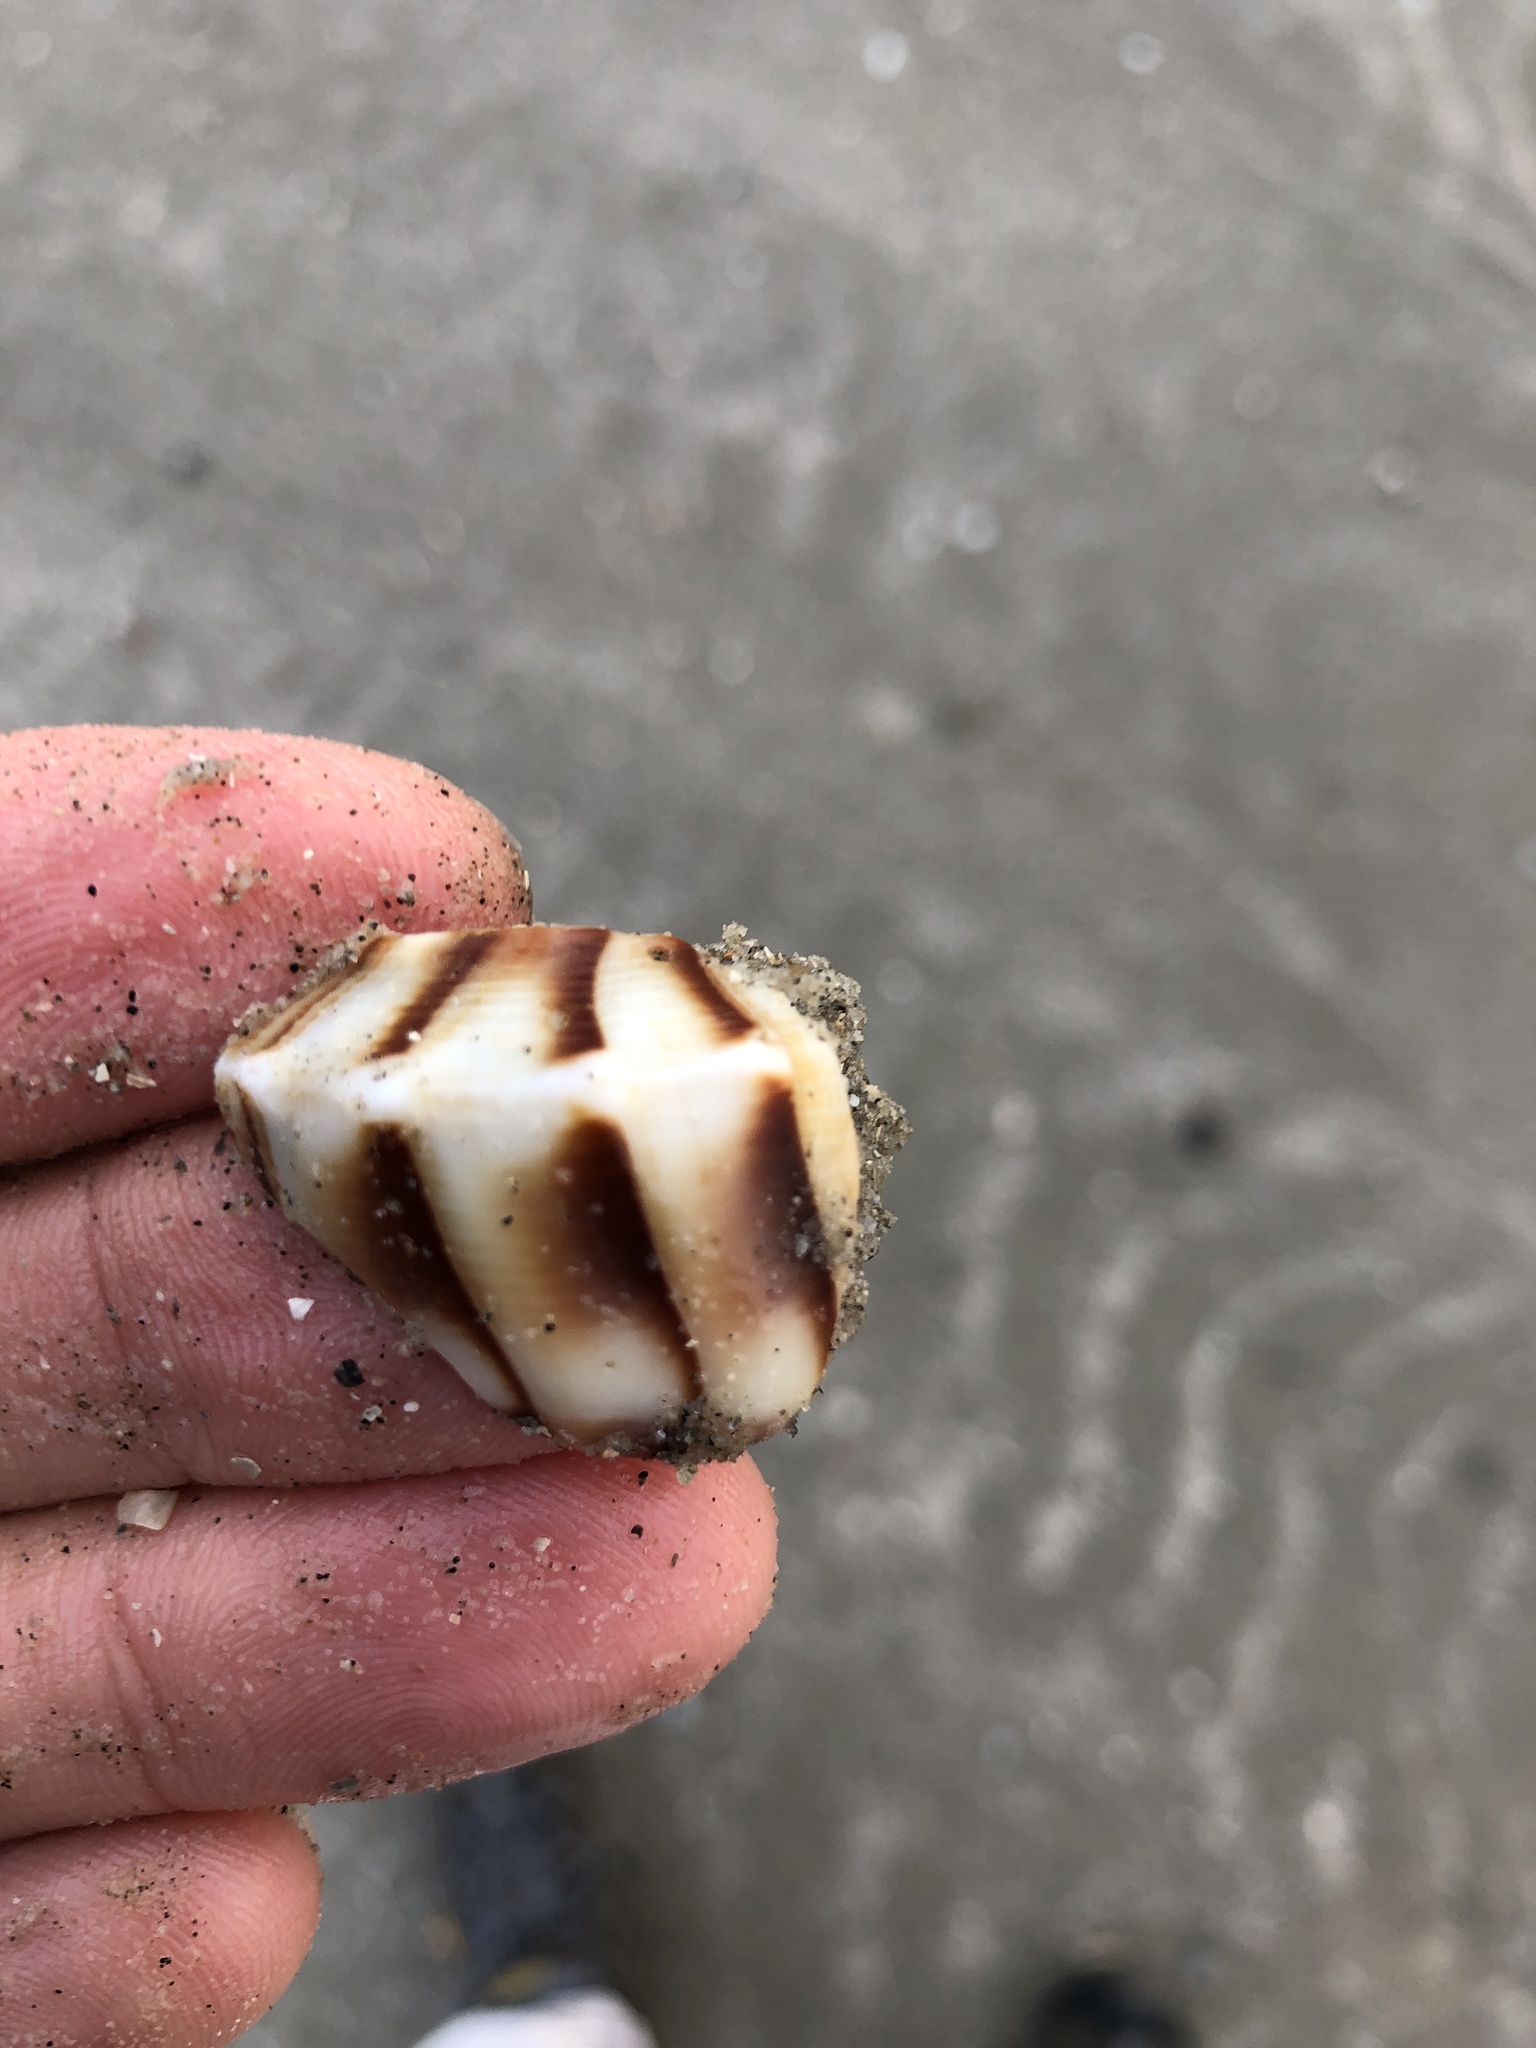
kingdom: Animalia
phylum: Mollusca
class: Gastropoda
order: Neogastropoda
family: Busyconidae
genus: Sinistrofulgur
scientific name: Sinistrofulgur pulleyi
